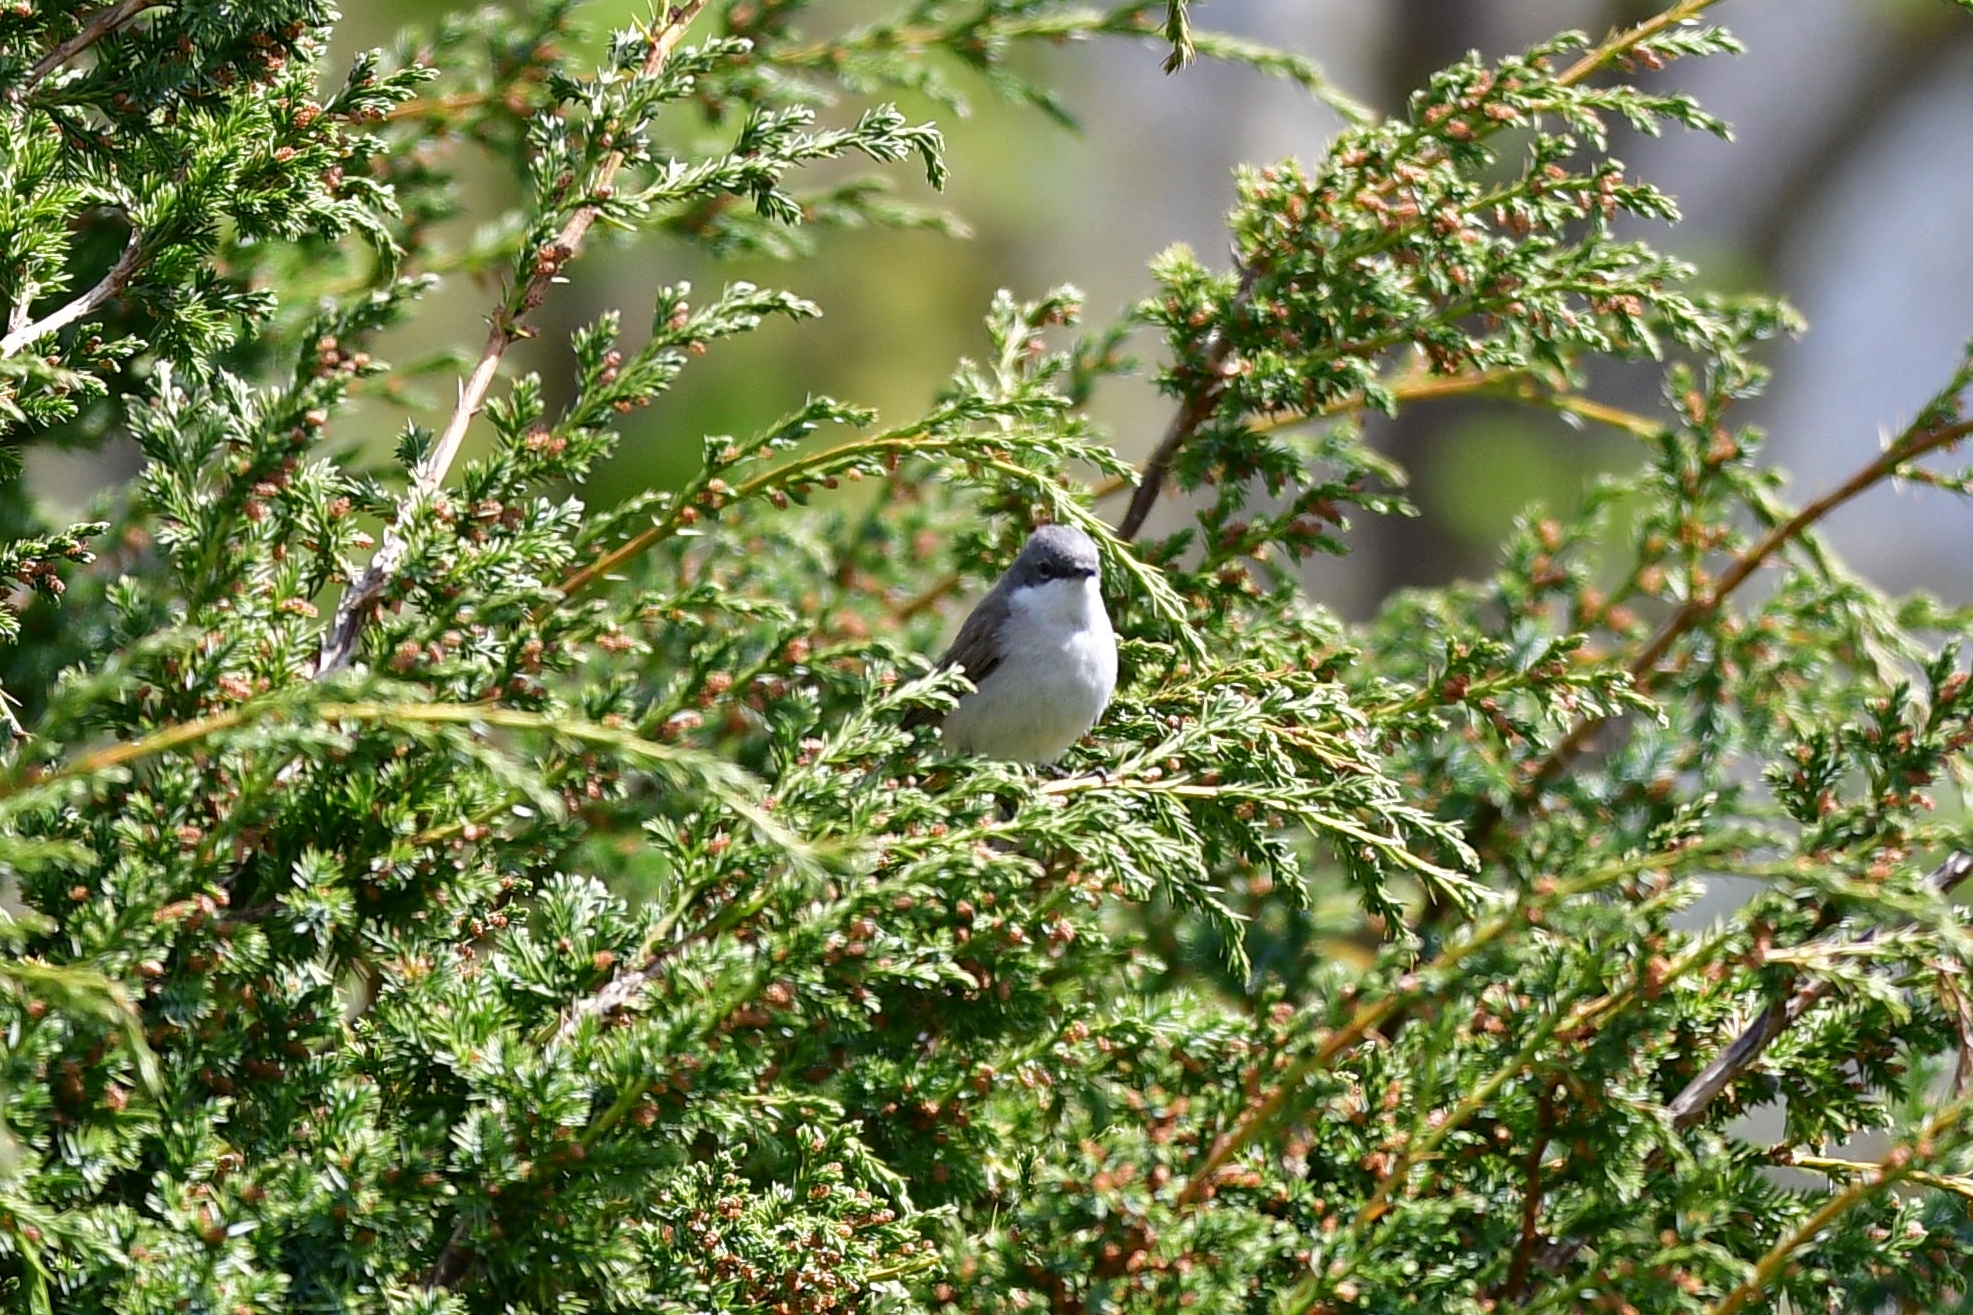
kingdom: Animalia
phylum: Chordata
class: Aves
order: Passeriformes
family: Sylviidae
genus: Sylvia
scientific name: Sylvia curruca
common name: Lesser whitethroat
